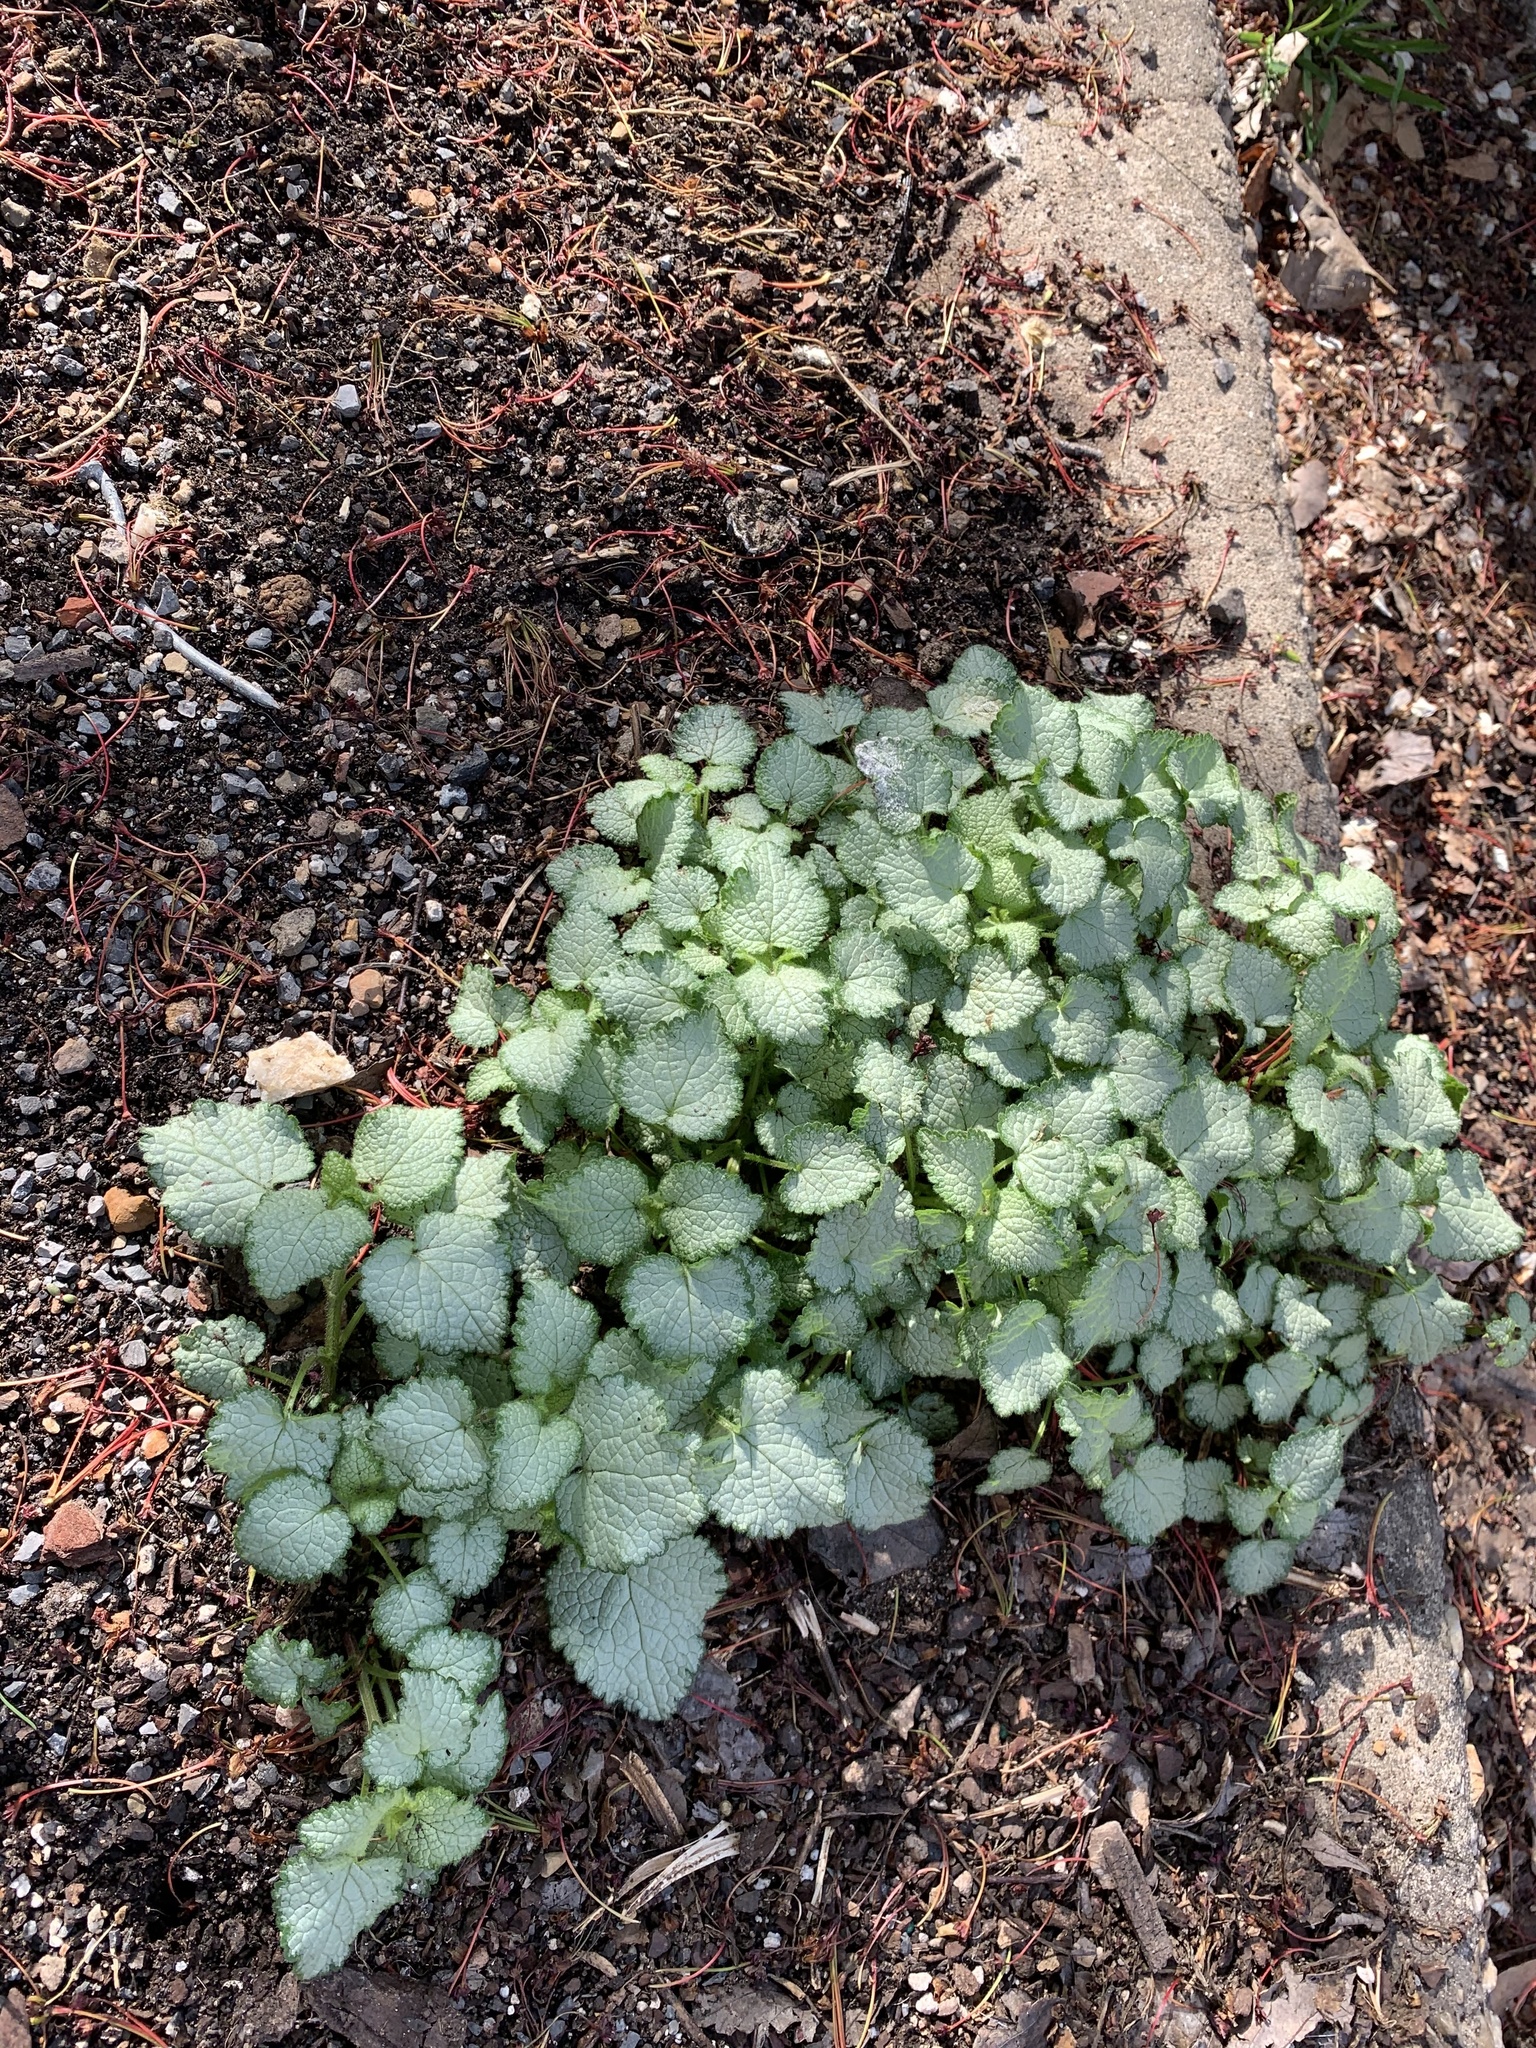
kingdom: Plantae
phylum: Tracheophyta
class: Magnoliopsida
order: Lamiales
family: Lamiaceae
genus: Lamium
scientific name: Lamium maculatum
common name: Spotted dead-nettle
